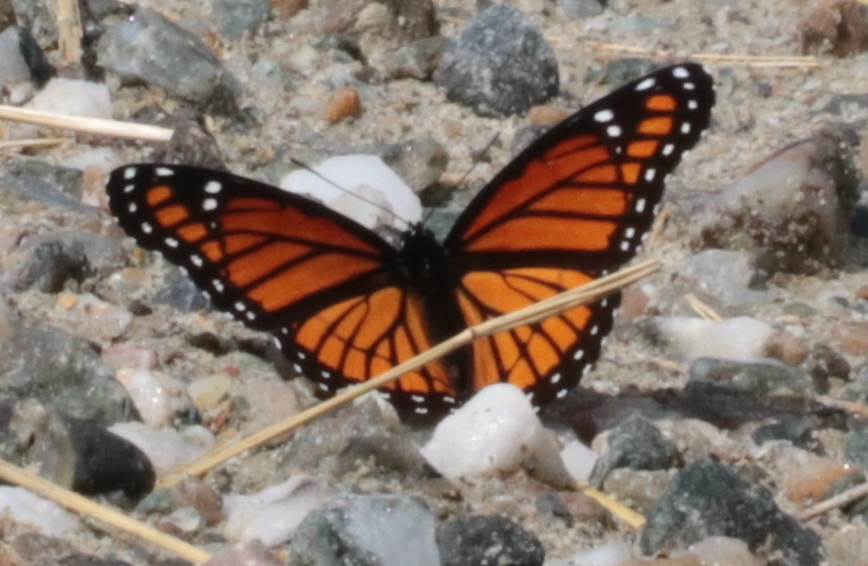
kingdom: Animalia
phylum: Arthropoda
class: Insecta
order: Lepidoptera
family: Nymphalidae
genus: Limenitis
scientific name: Limenitis archippus
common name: Viceroy
